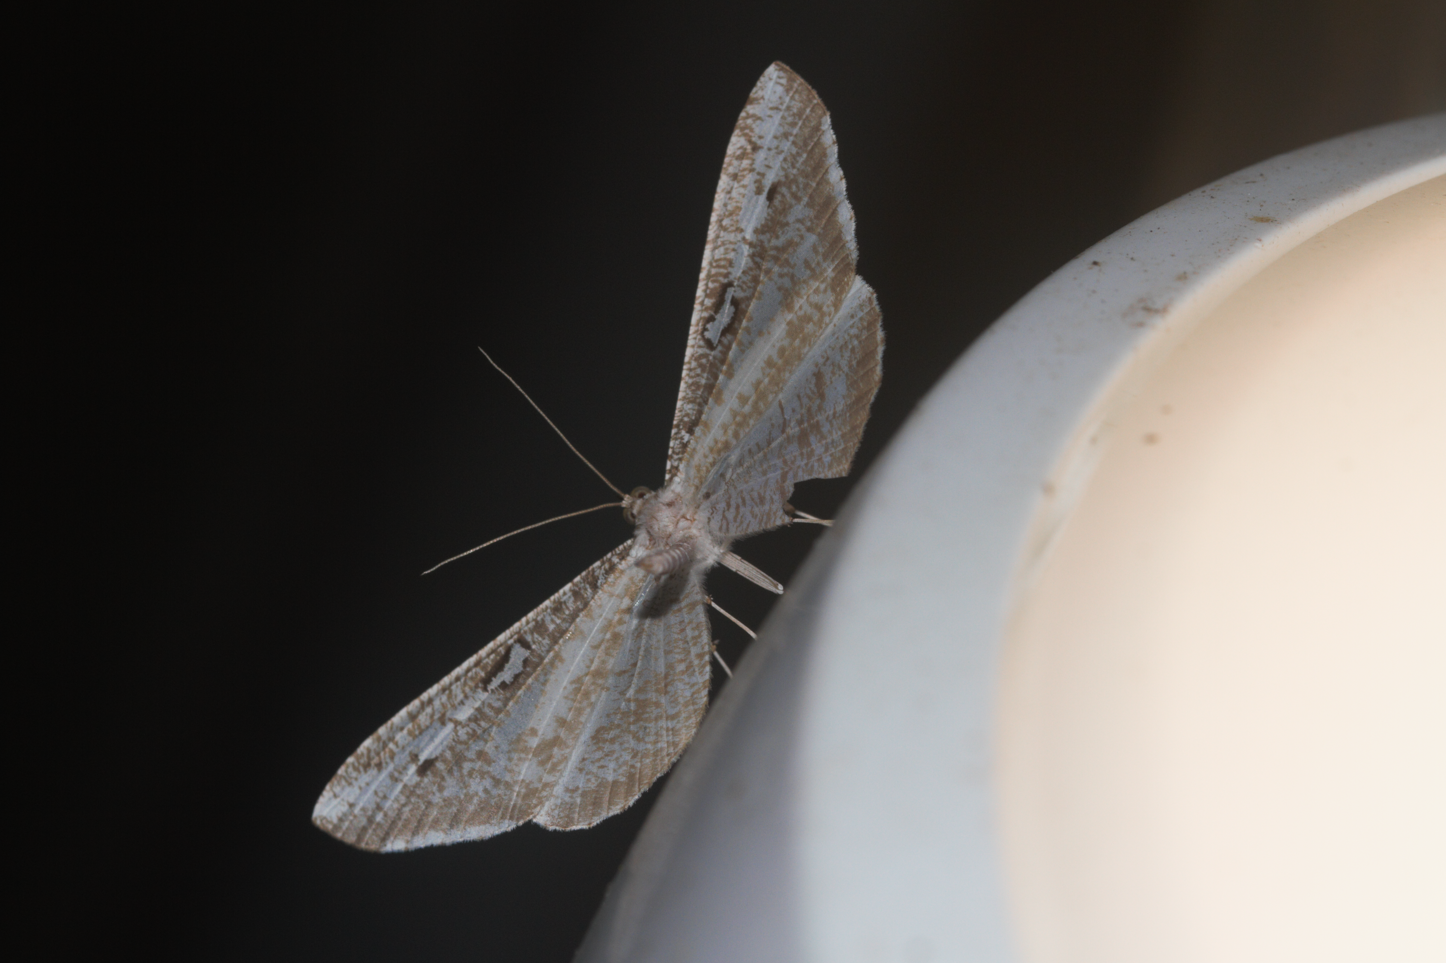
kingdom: Animalia
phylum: Arthropoda
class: Insecta
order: Lepidoptera
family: Hedylidae
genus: Macrosoma
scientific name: Macrosoma tipulata
